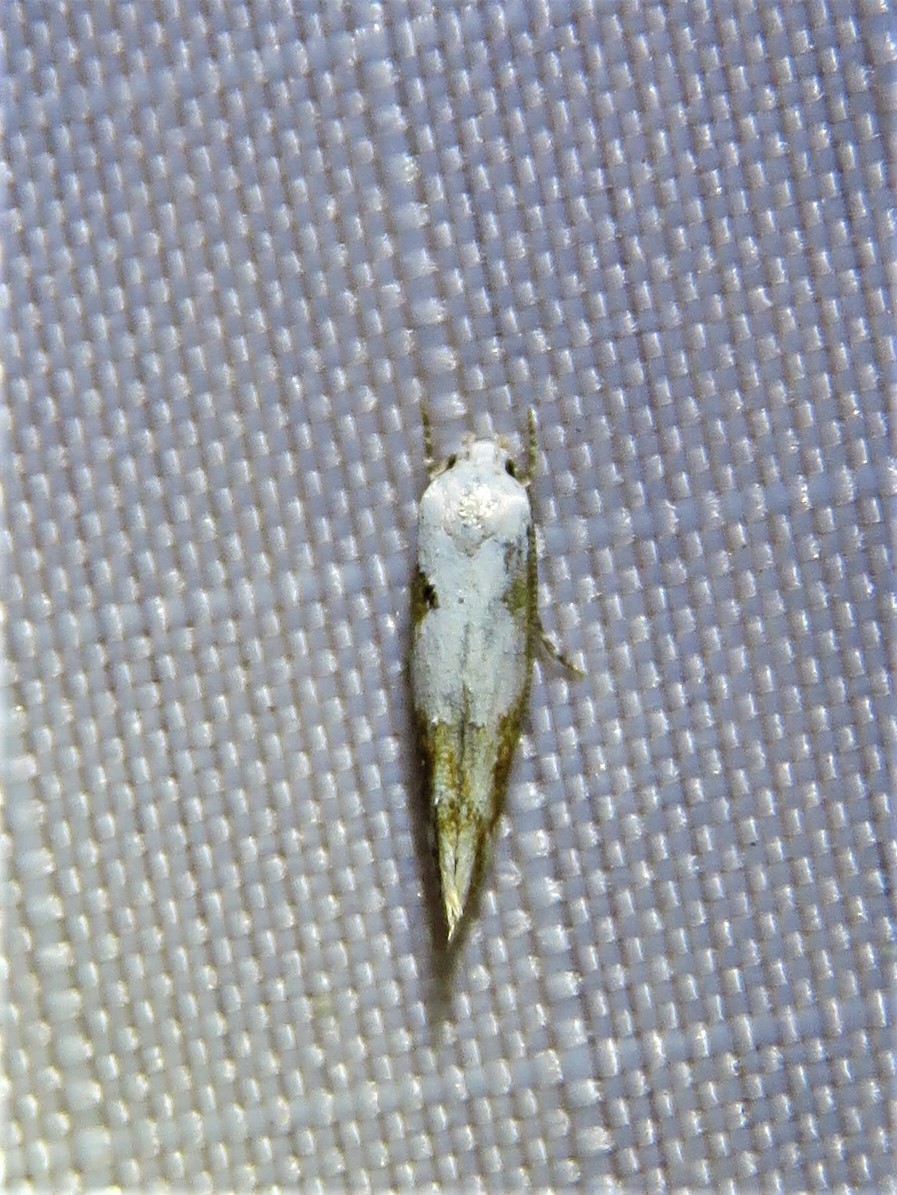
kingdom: Animalia
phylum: Arthropoda
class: Insecta
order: Lepidoptera
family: Momphidae
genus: Mompha
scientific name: Mompha circumscriptella
